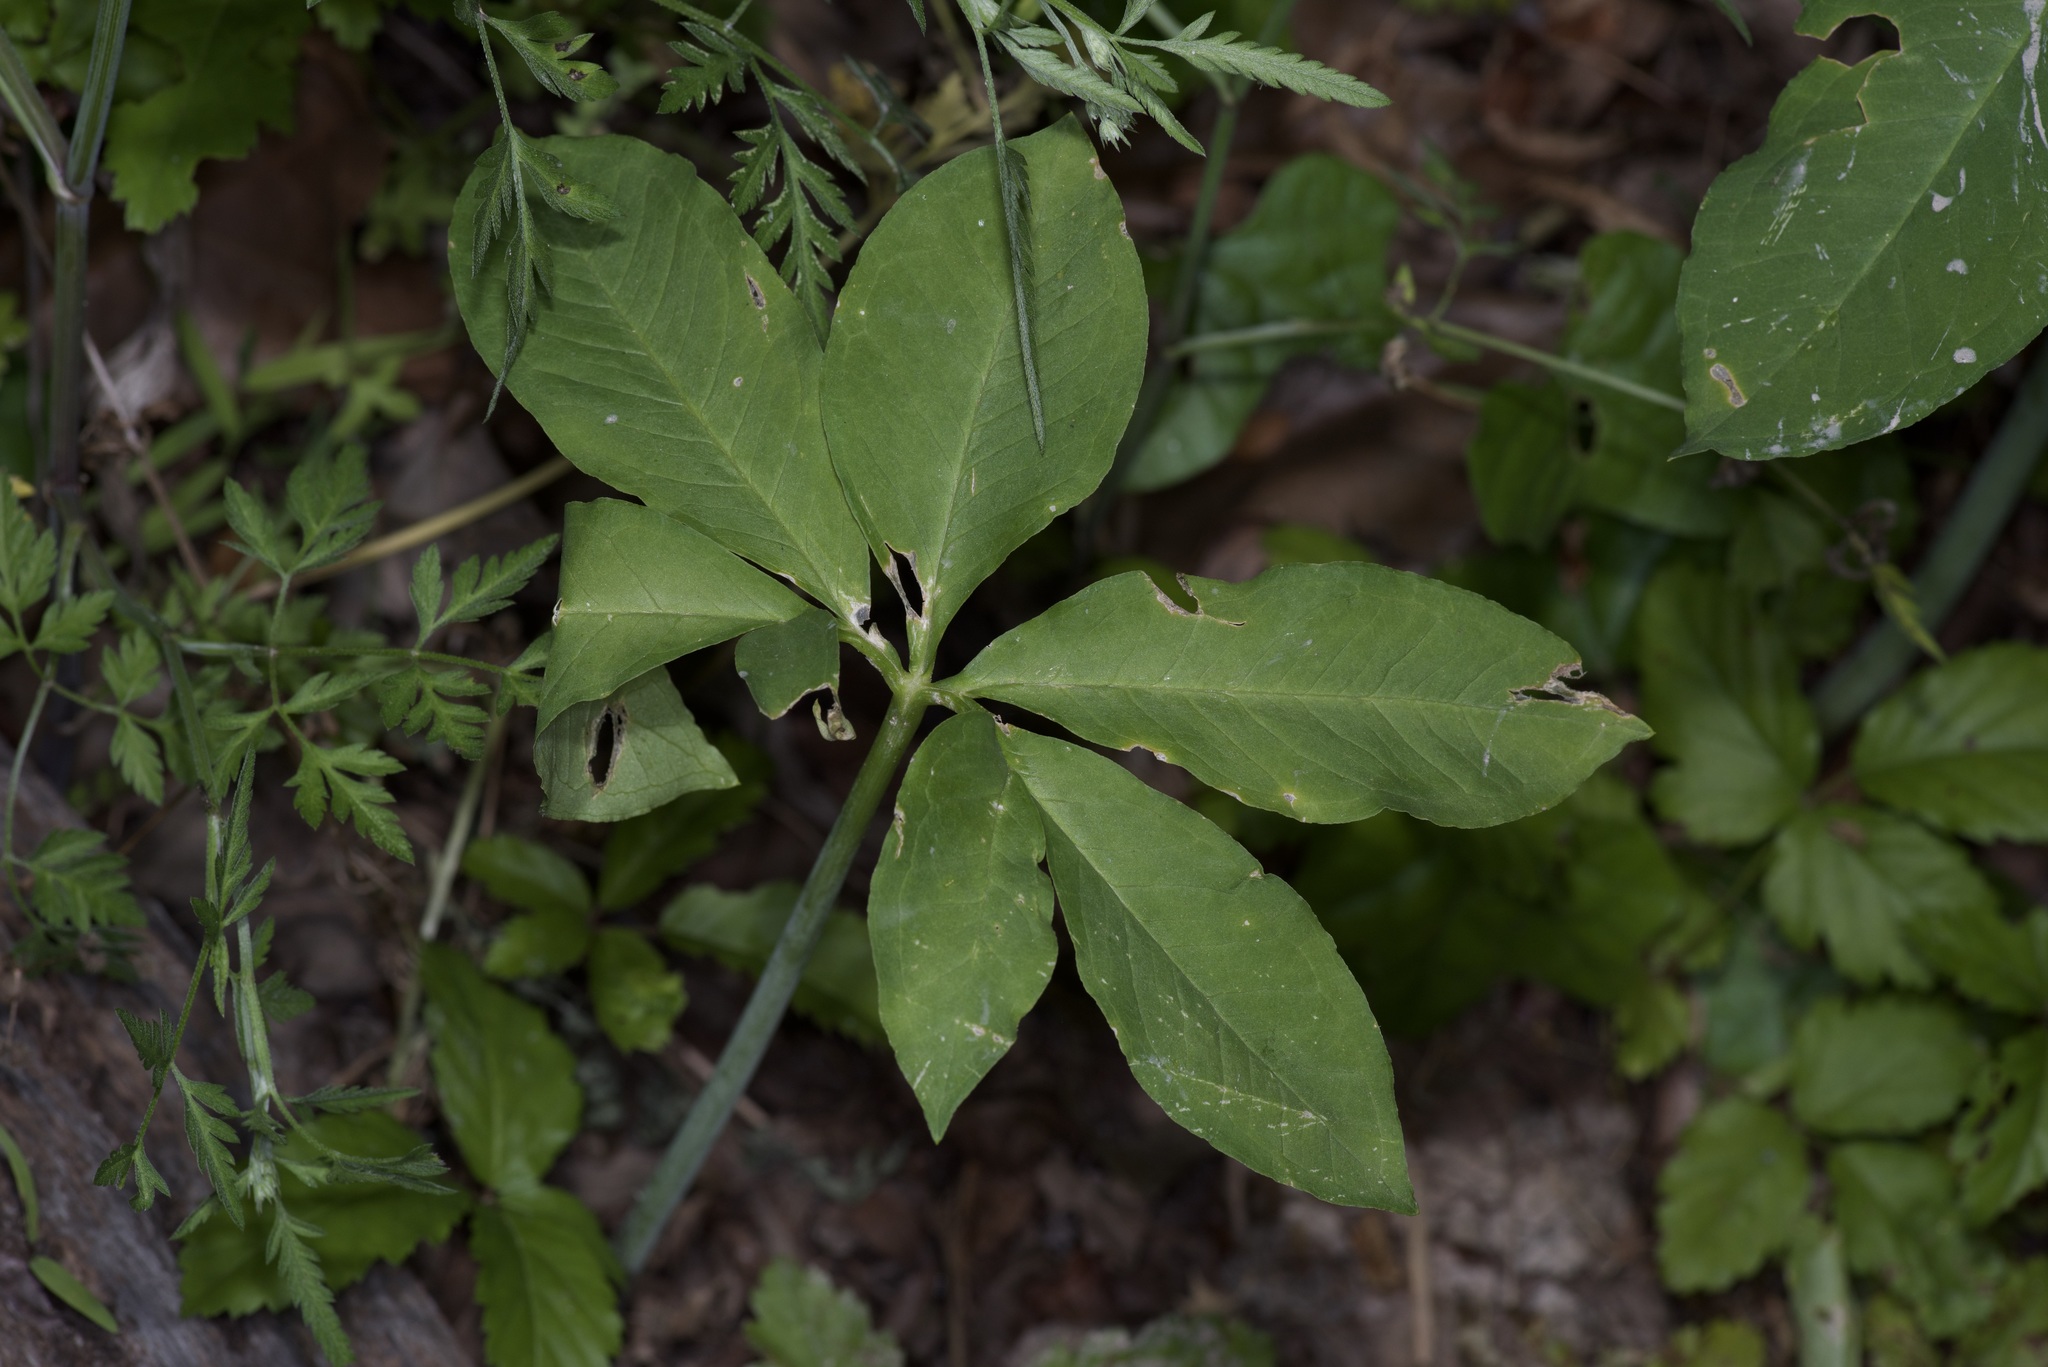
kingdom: Plantae
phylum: Tracheophyta
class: Liliopsida
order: Alismatales
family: Araceae
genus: Arisaema
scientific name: Arisaema dracontium
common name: Dragon-arum
